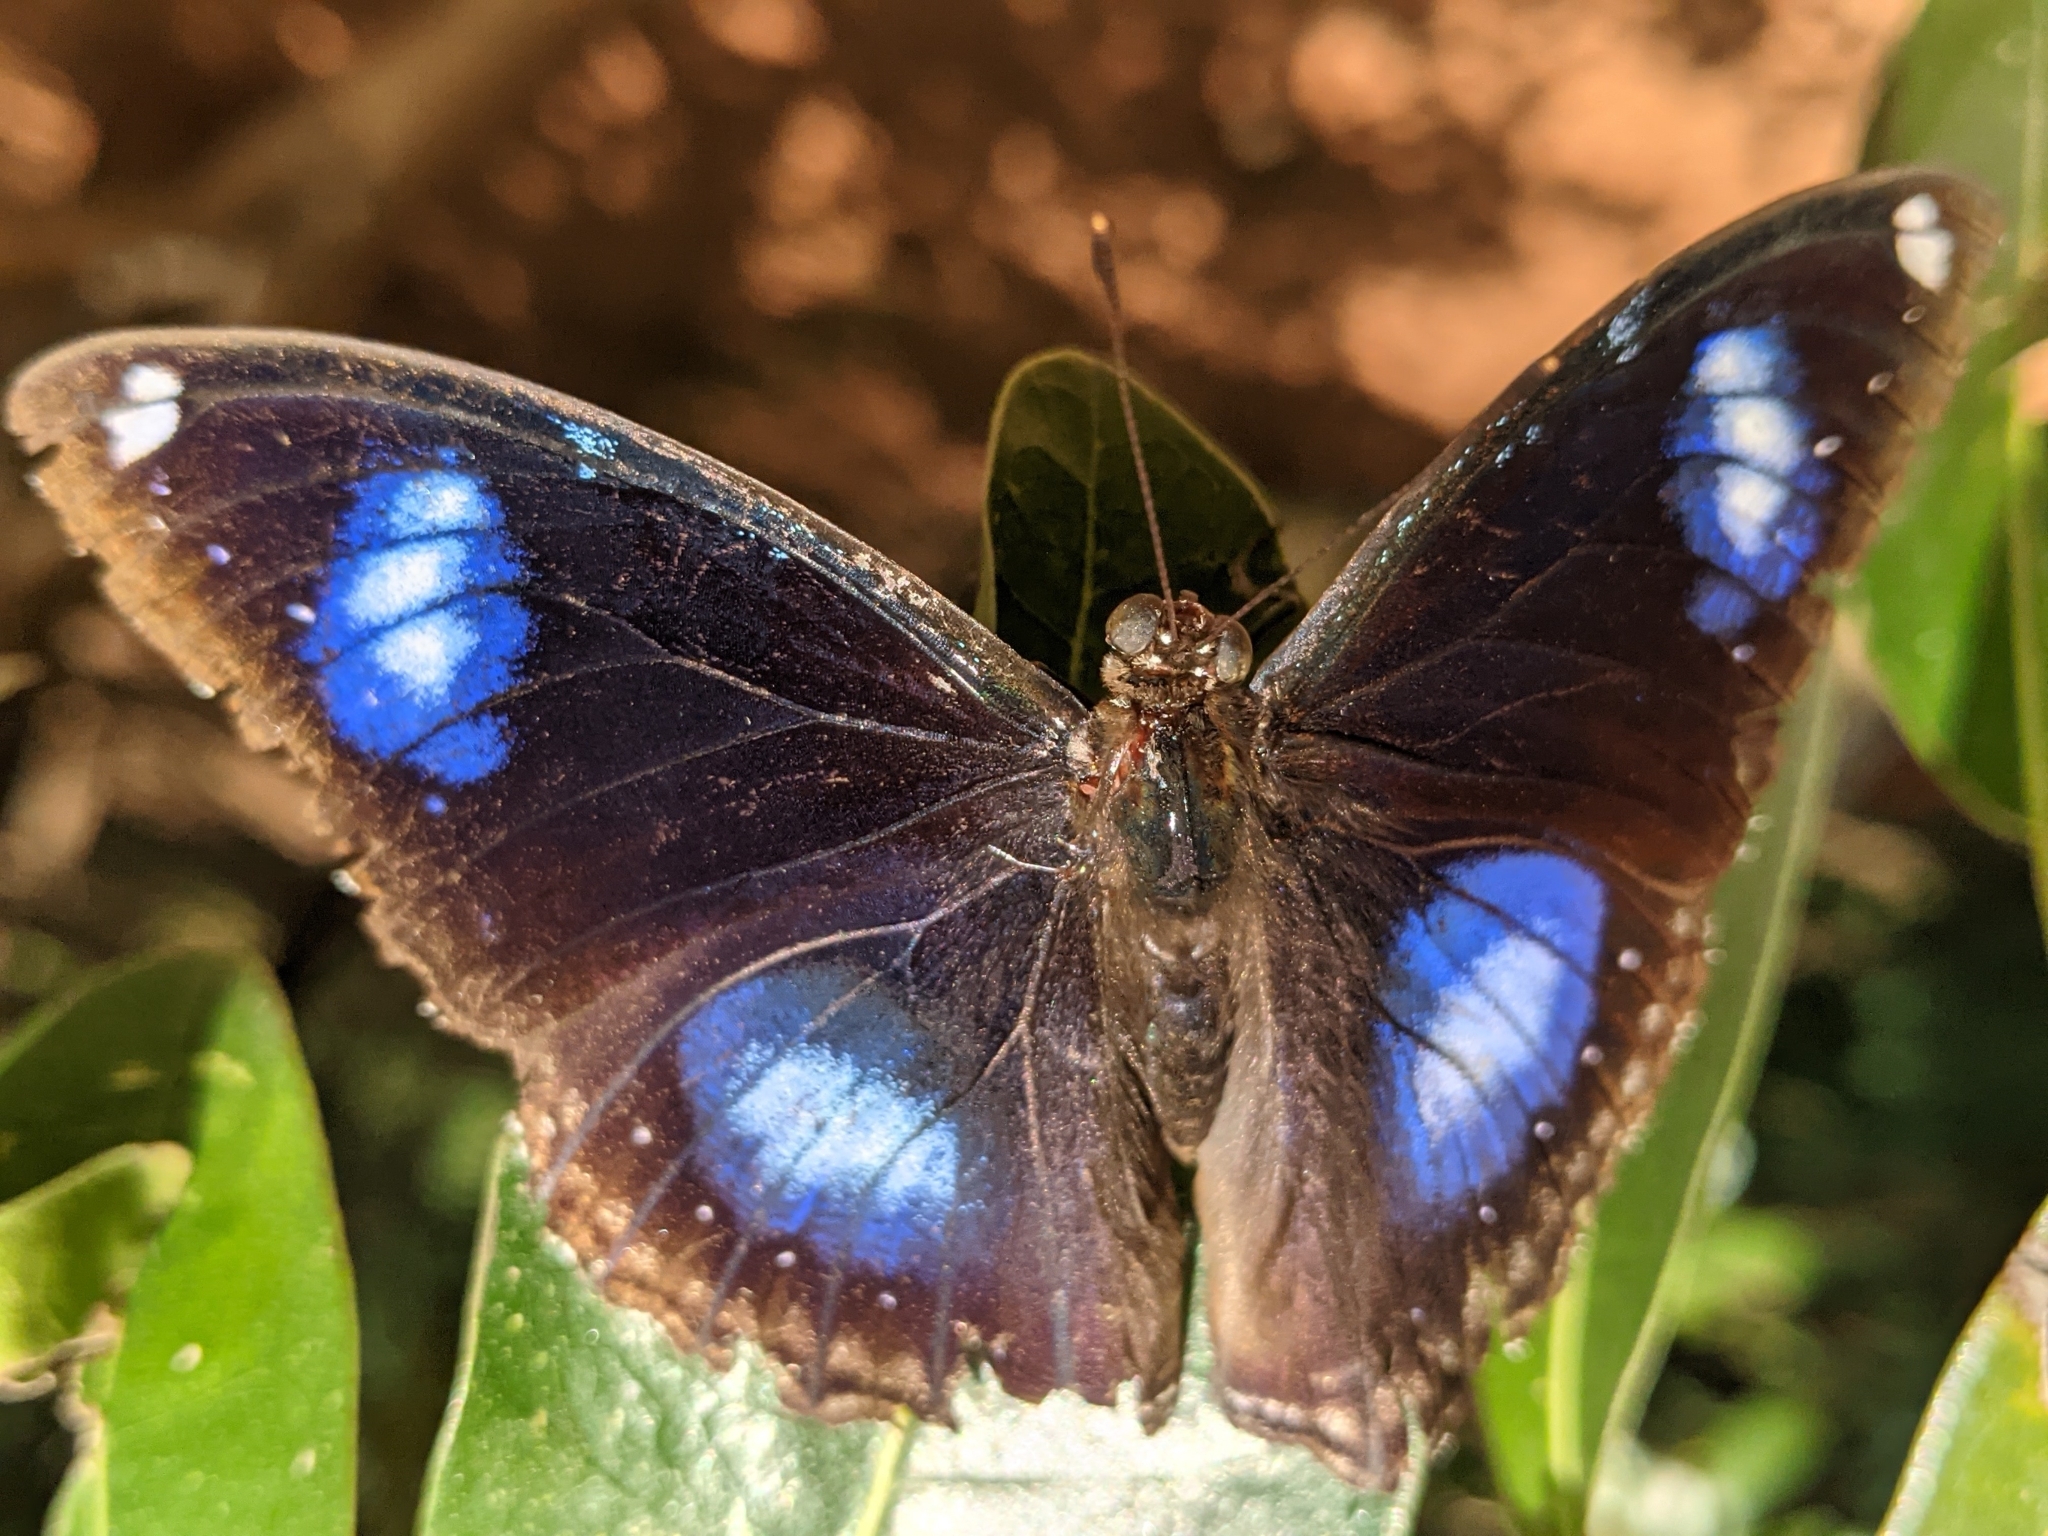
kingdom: Animalia
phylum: Arthropoda
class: Insecta
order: Lepidoptera
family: Nymphalidae
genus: Hypolimnas
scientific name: Hypolimnas bolina
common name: Great eggfly
